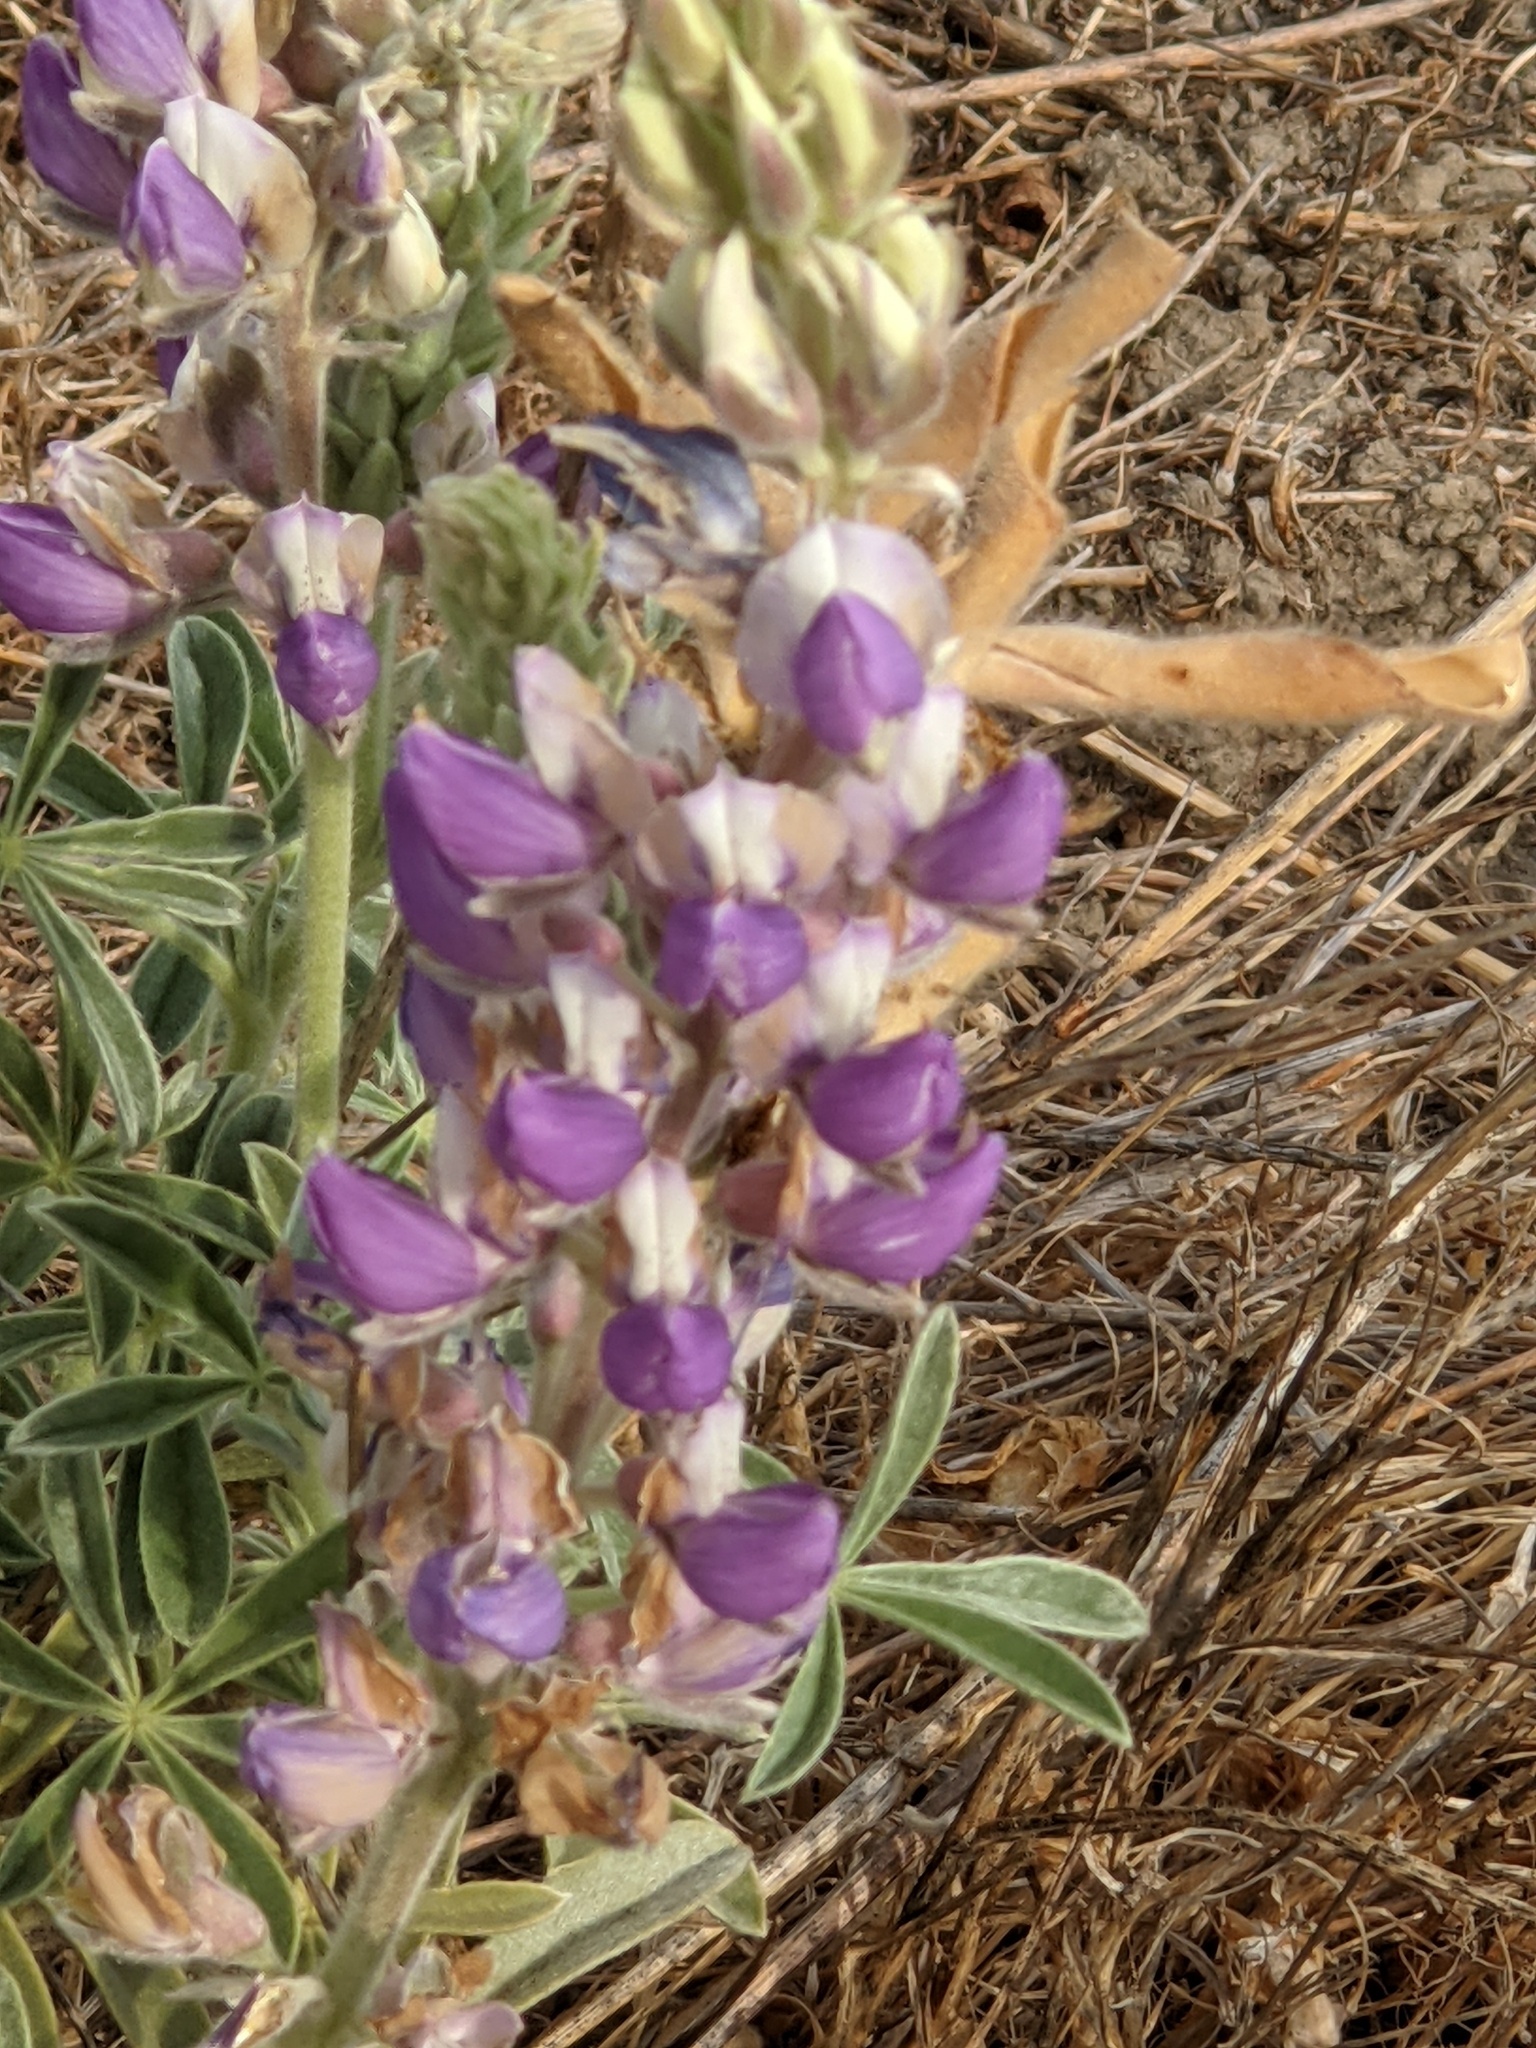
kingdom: Plantae
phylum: Tracheophyta
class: Magnoliopsida
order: Fabales
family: Fabaceae
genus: Lupinus
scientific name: Lupinus formosus
